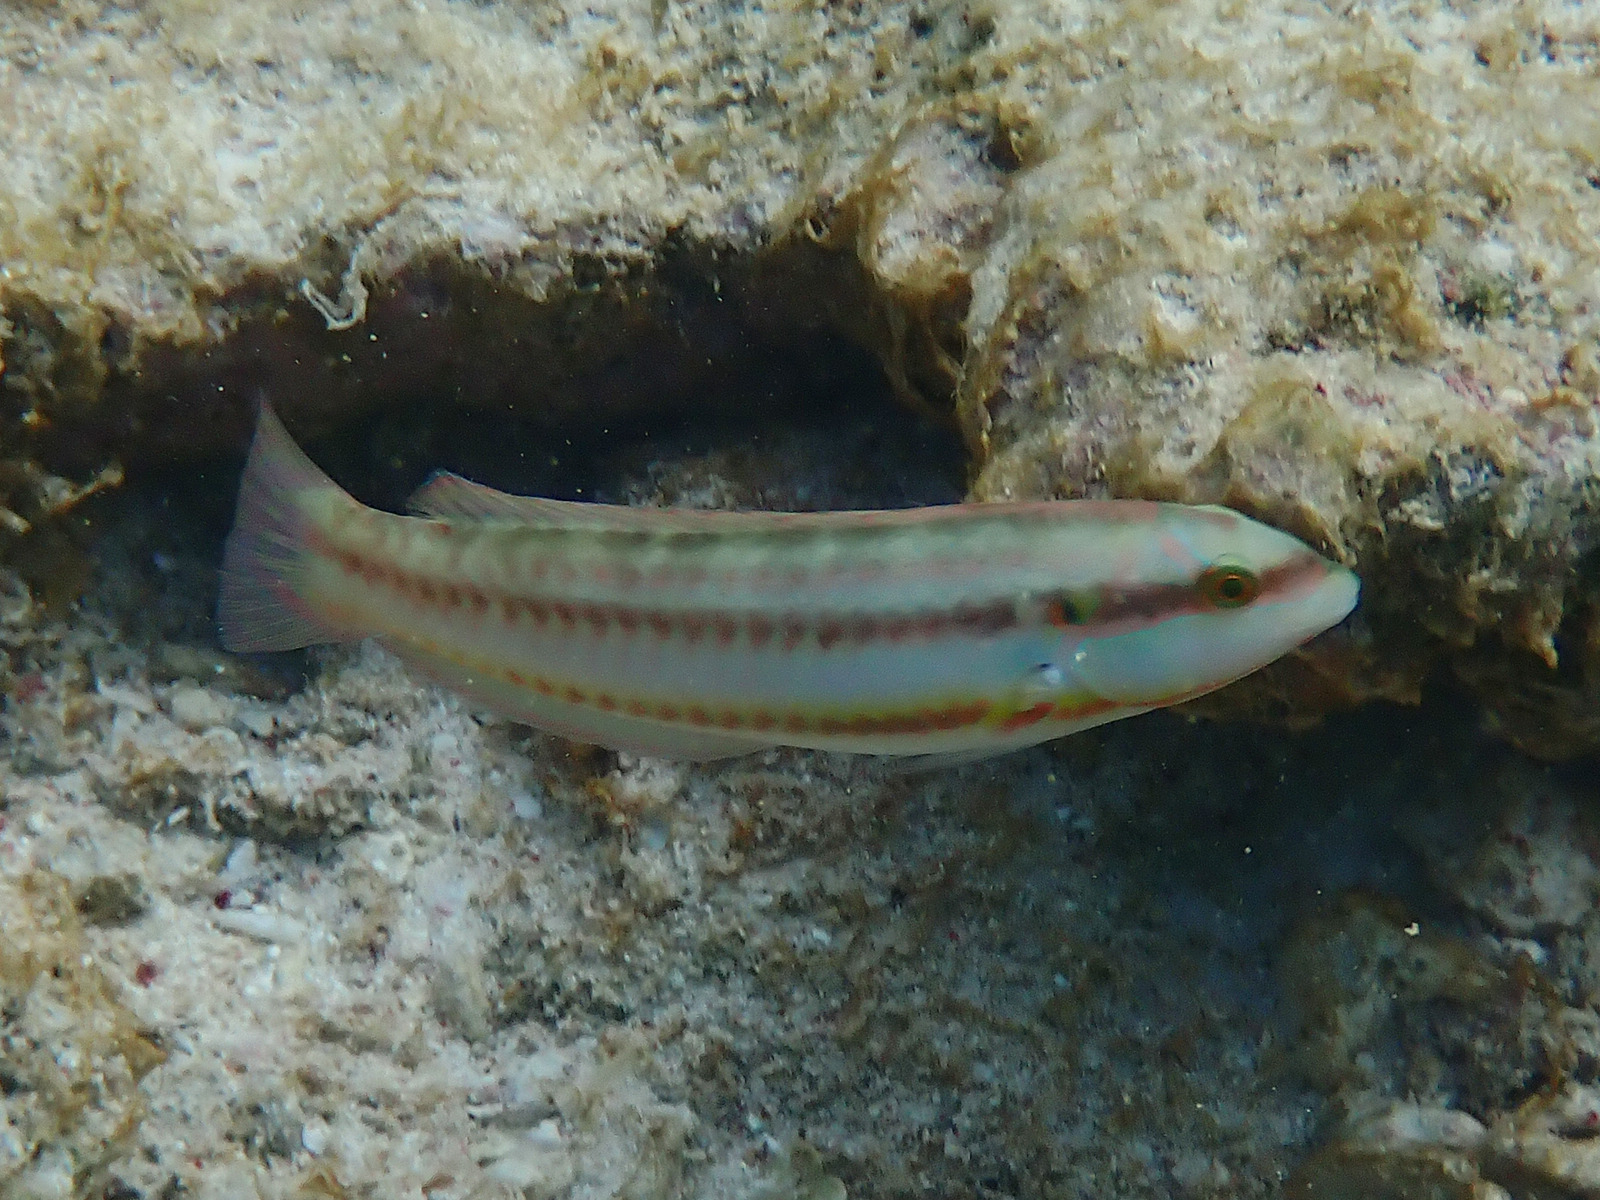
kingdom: Animalia
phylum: Chordata
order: Perciformes
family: Labridae
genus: Halichoeres
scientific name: Halichoeres bivittatus
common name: Slippery dick
